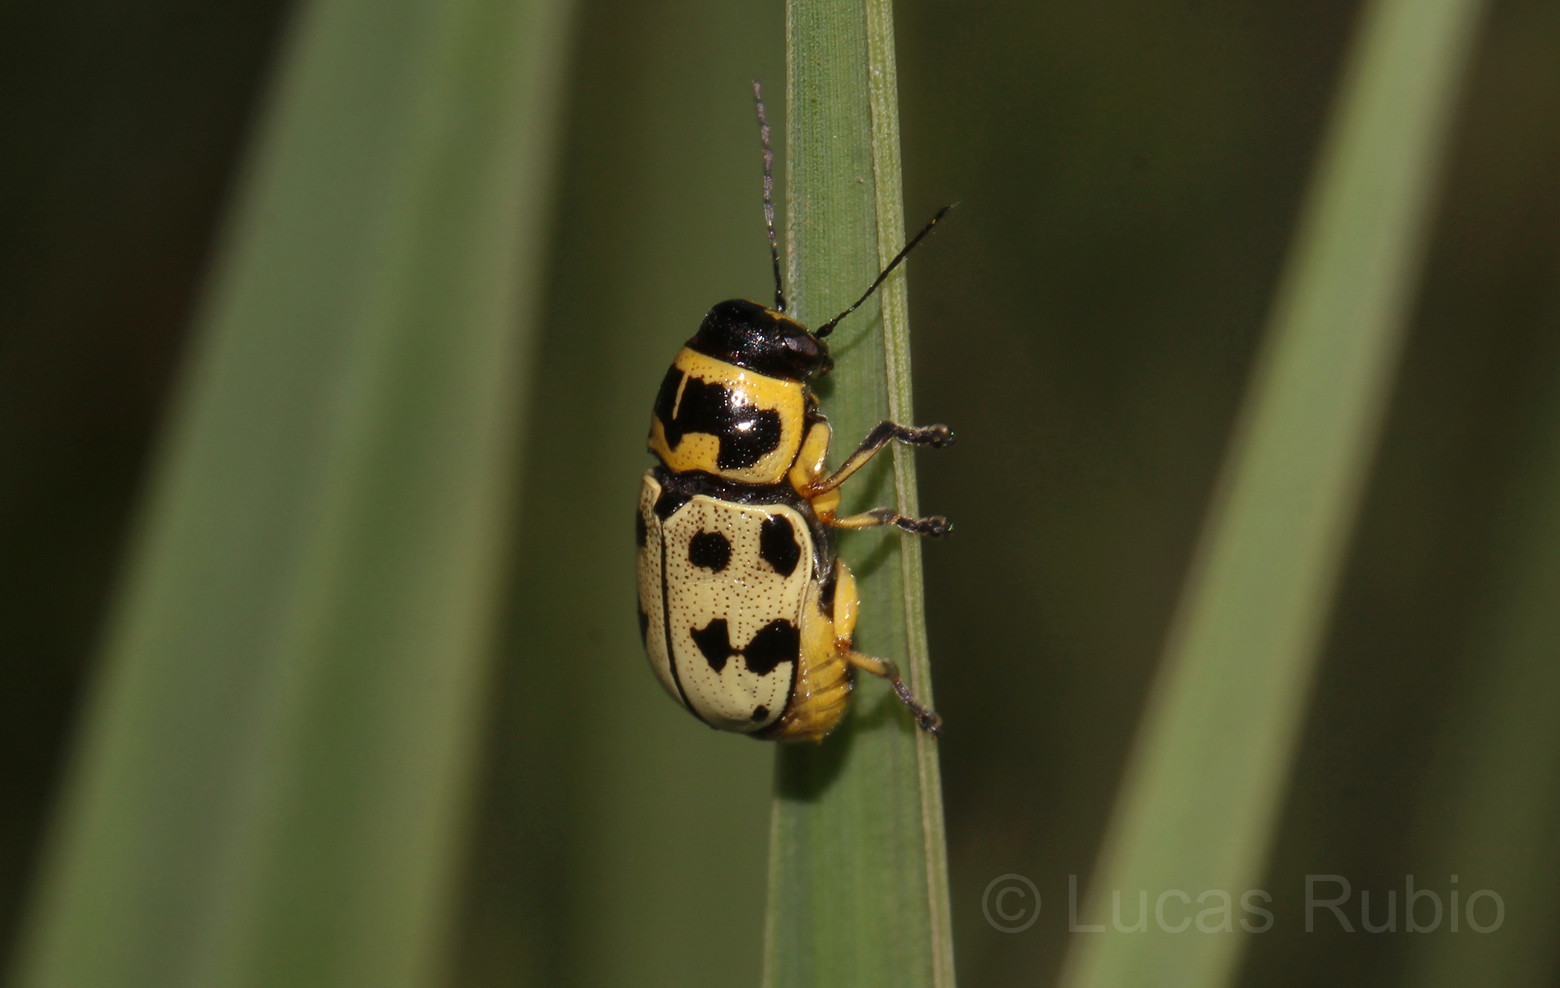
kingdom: Animalia
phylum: Arthropoda
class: Insecta
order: Coleoptera
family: Chrysomelidae
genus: Metallactus
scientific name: Metallactus pollens
